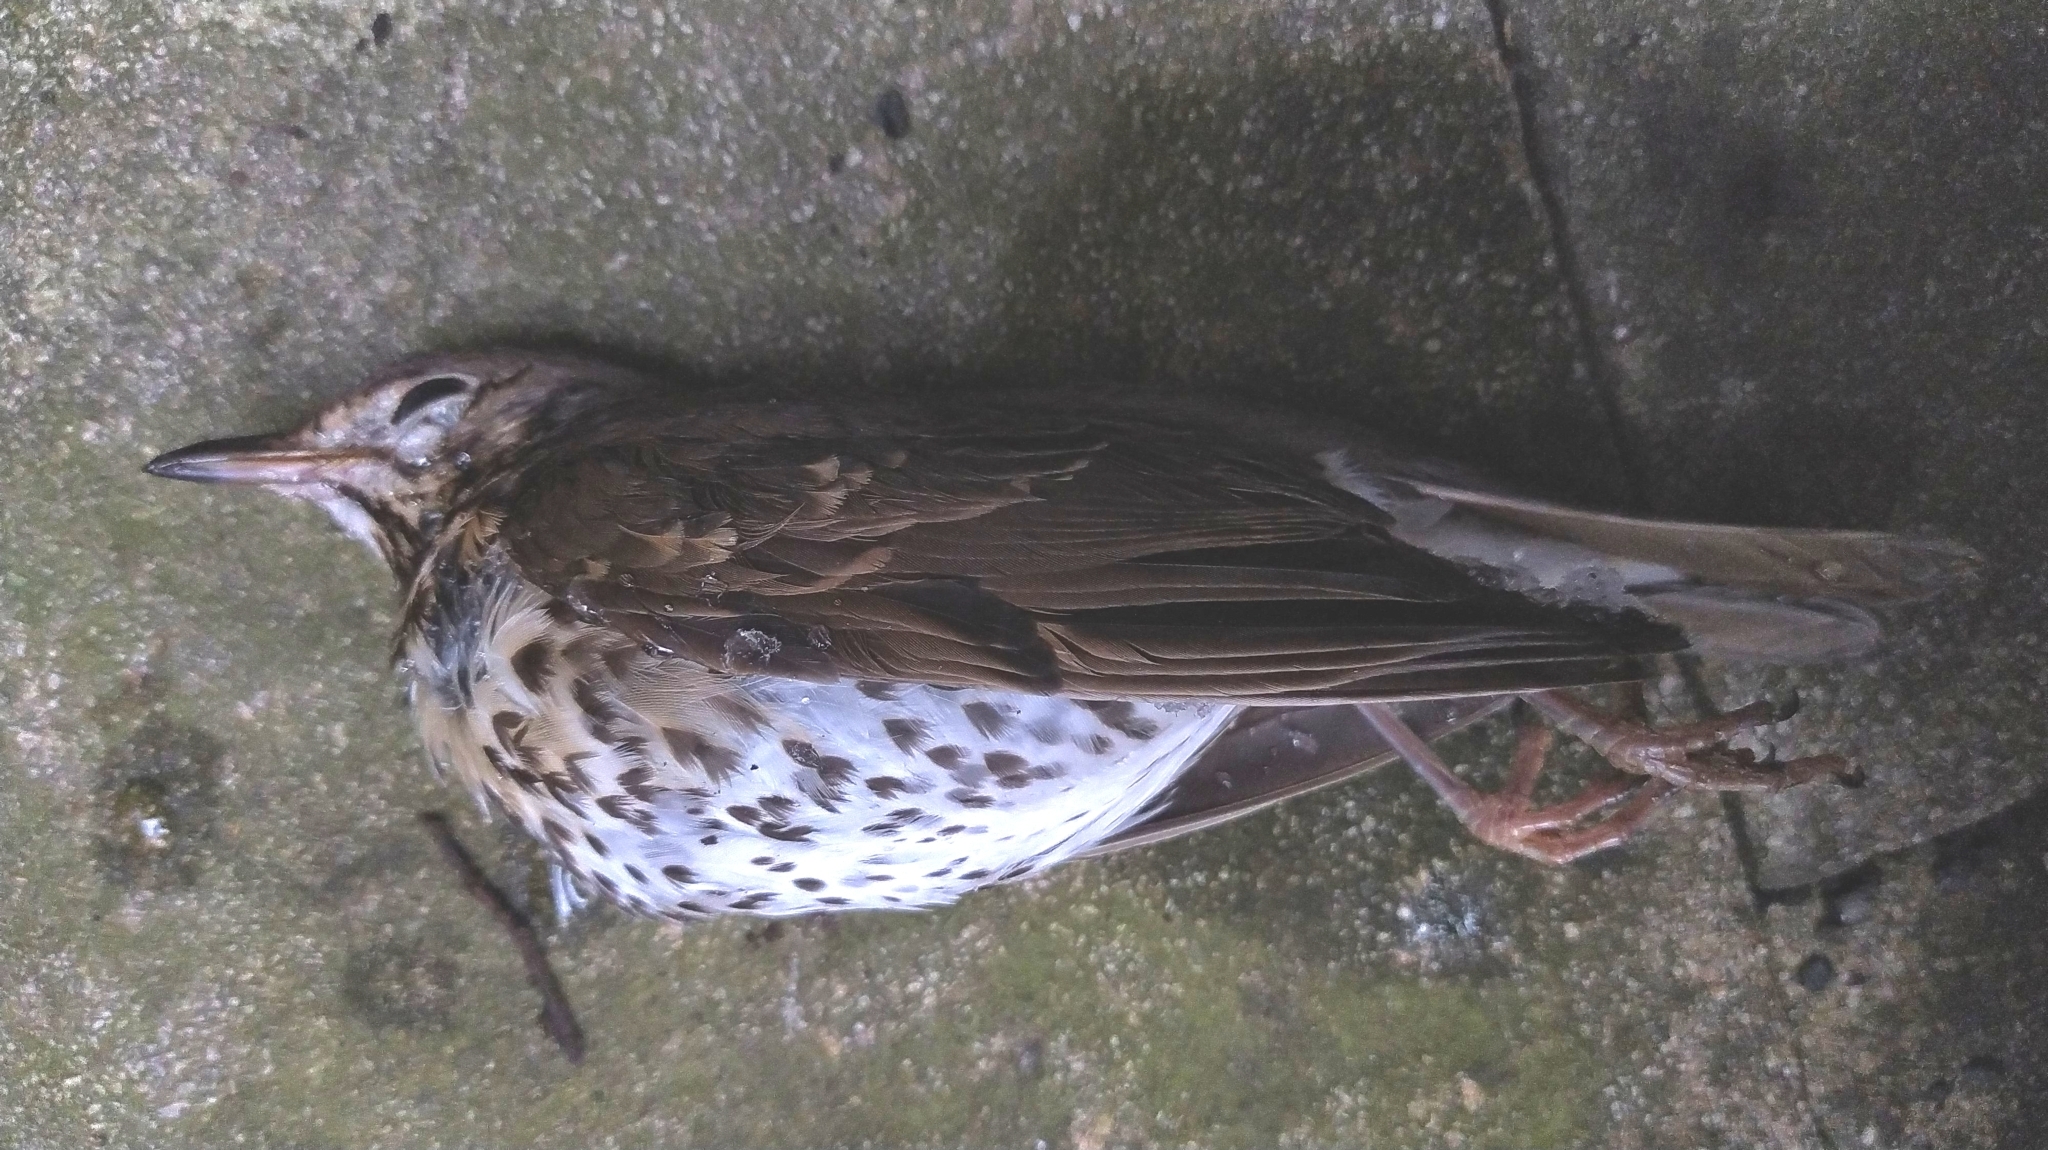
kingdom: Animalia
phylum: Chordata
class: Aves
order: Passeriformes
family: Turdidae
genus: Turdus
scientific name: Turdus philomelos
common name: Song thrush
